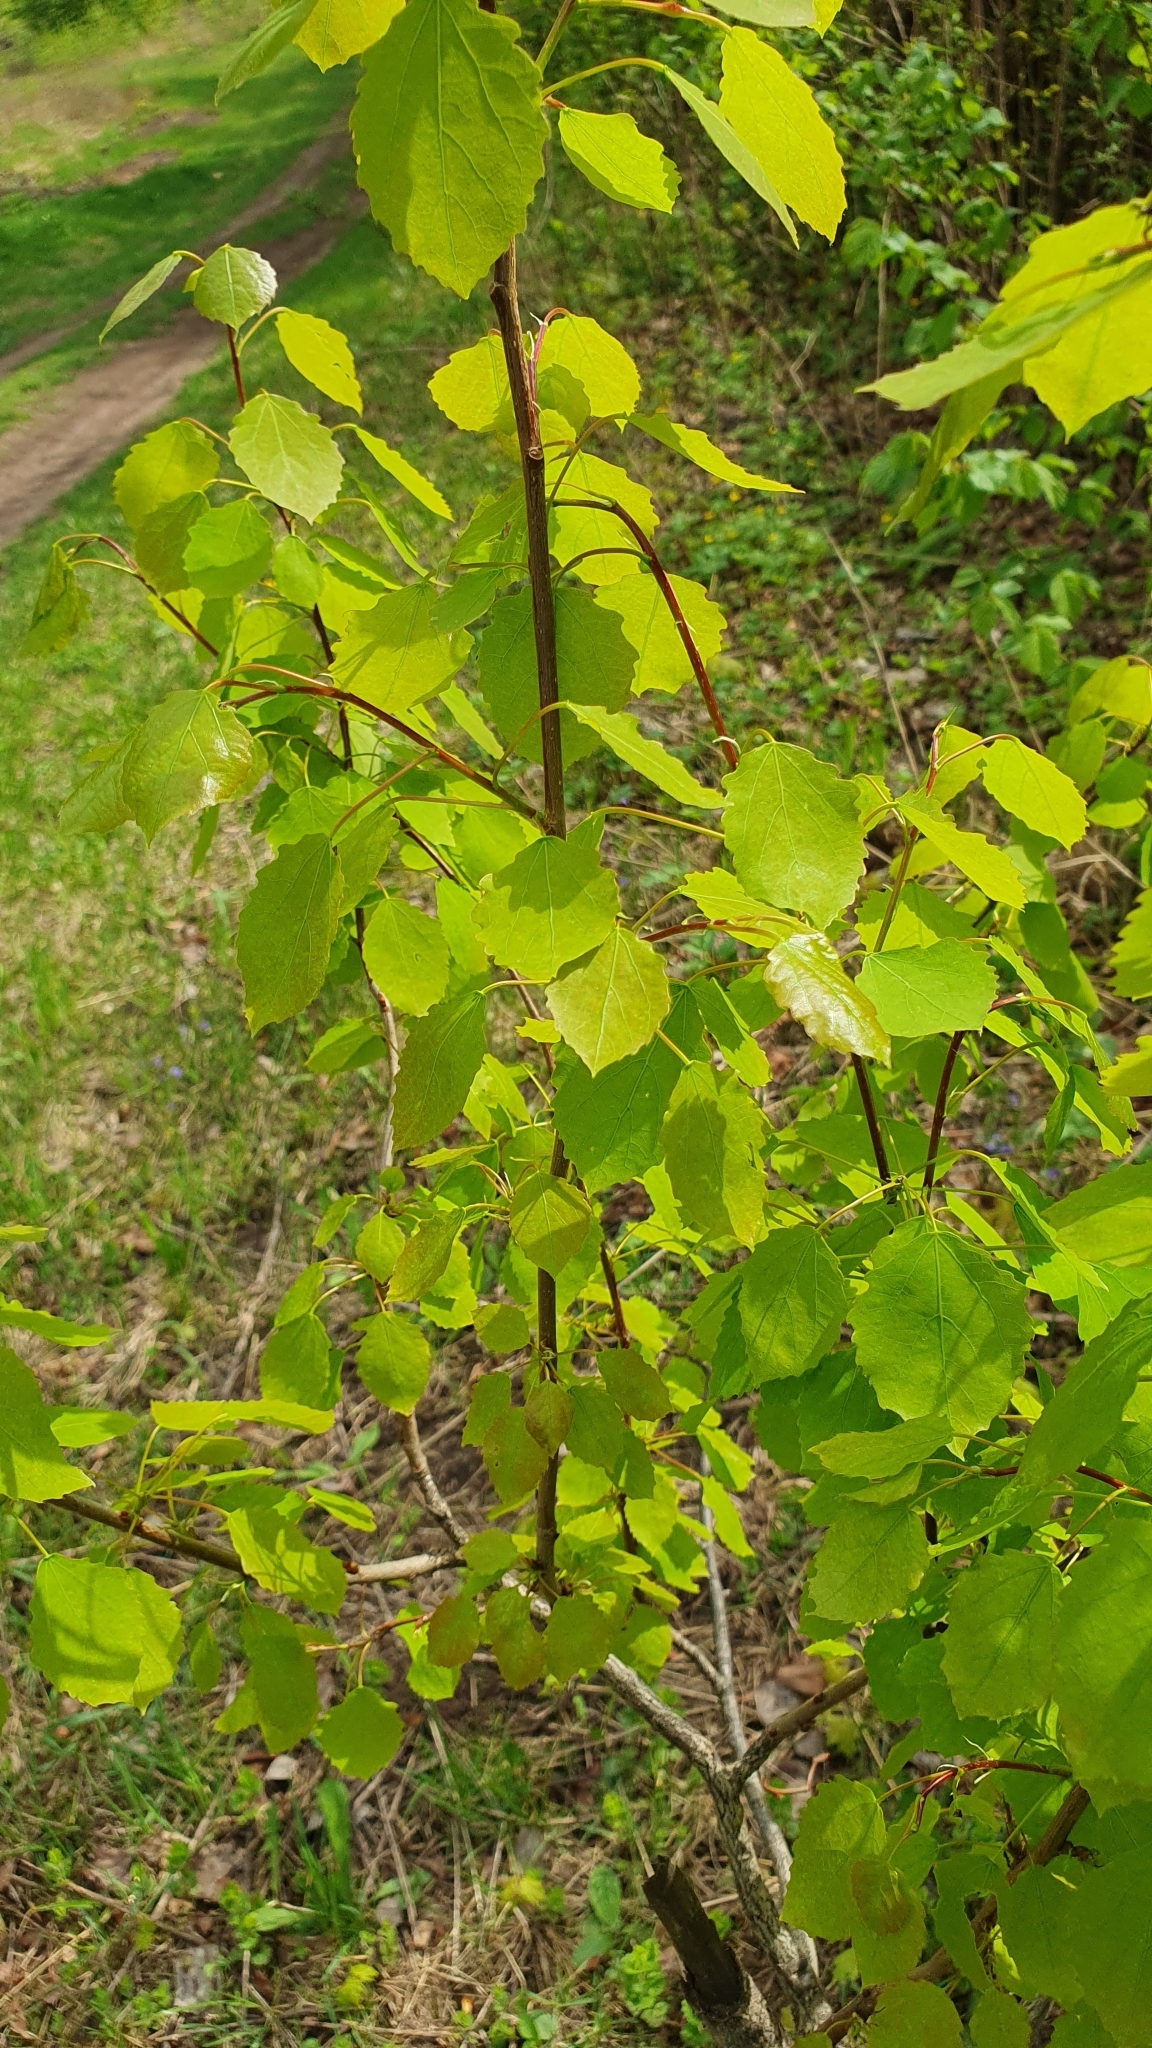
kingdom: Plantae
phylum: Tracheophyta
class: Magnoliopsida
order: Malpighiales
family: Salicaceae
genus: Populus
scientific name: Populus tremula
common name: European aspen
